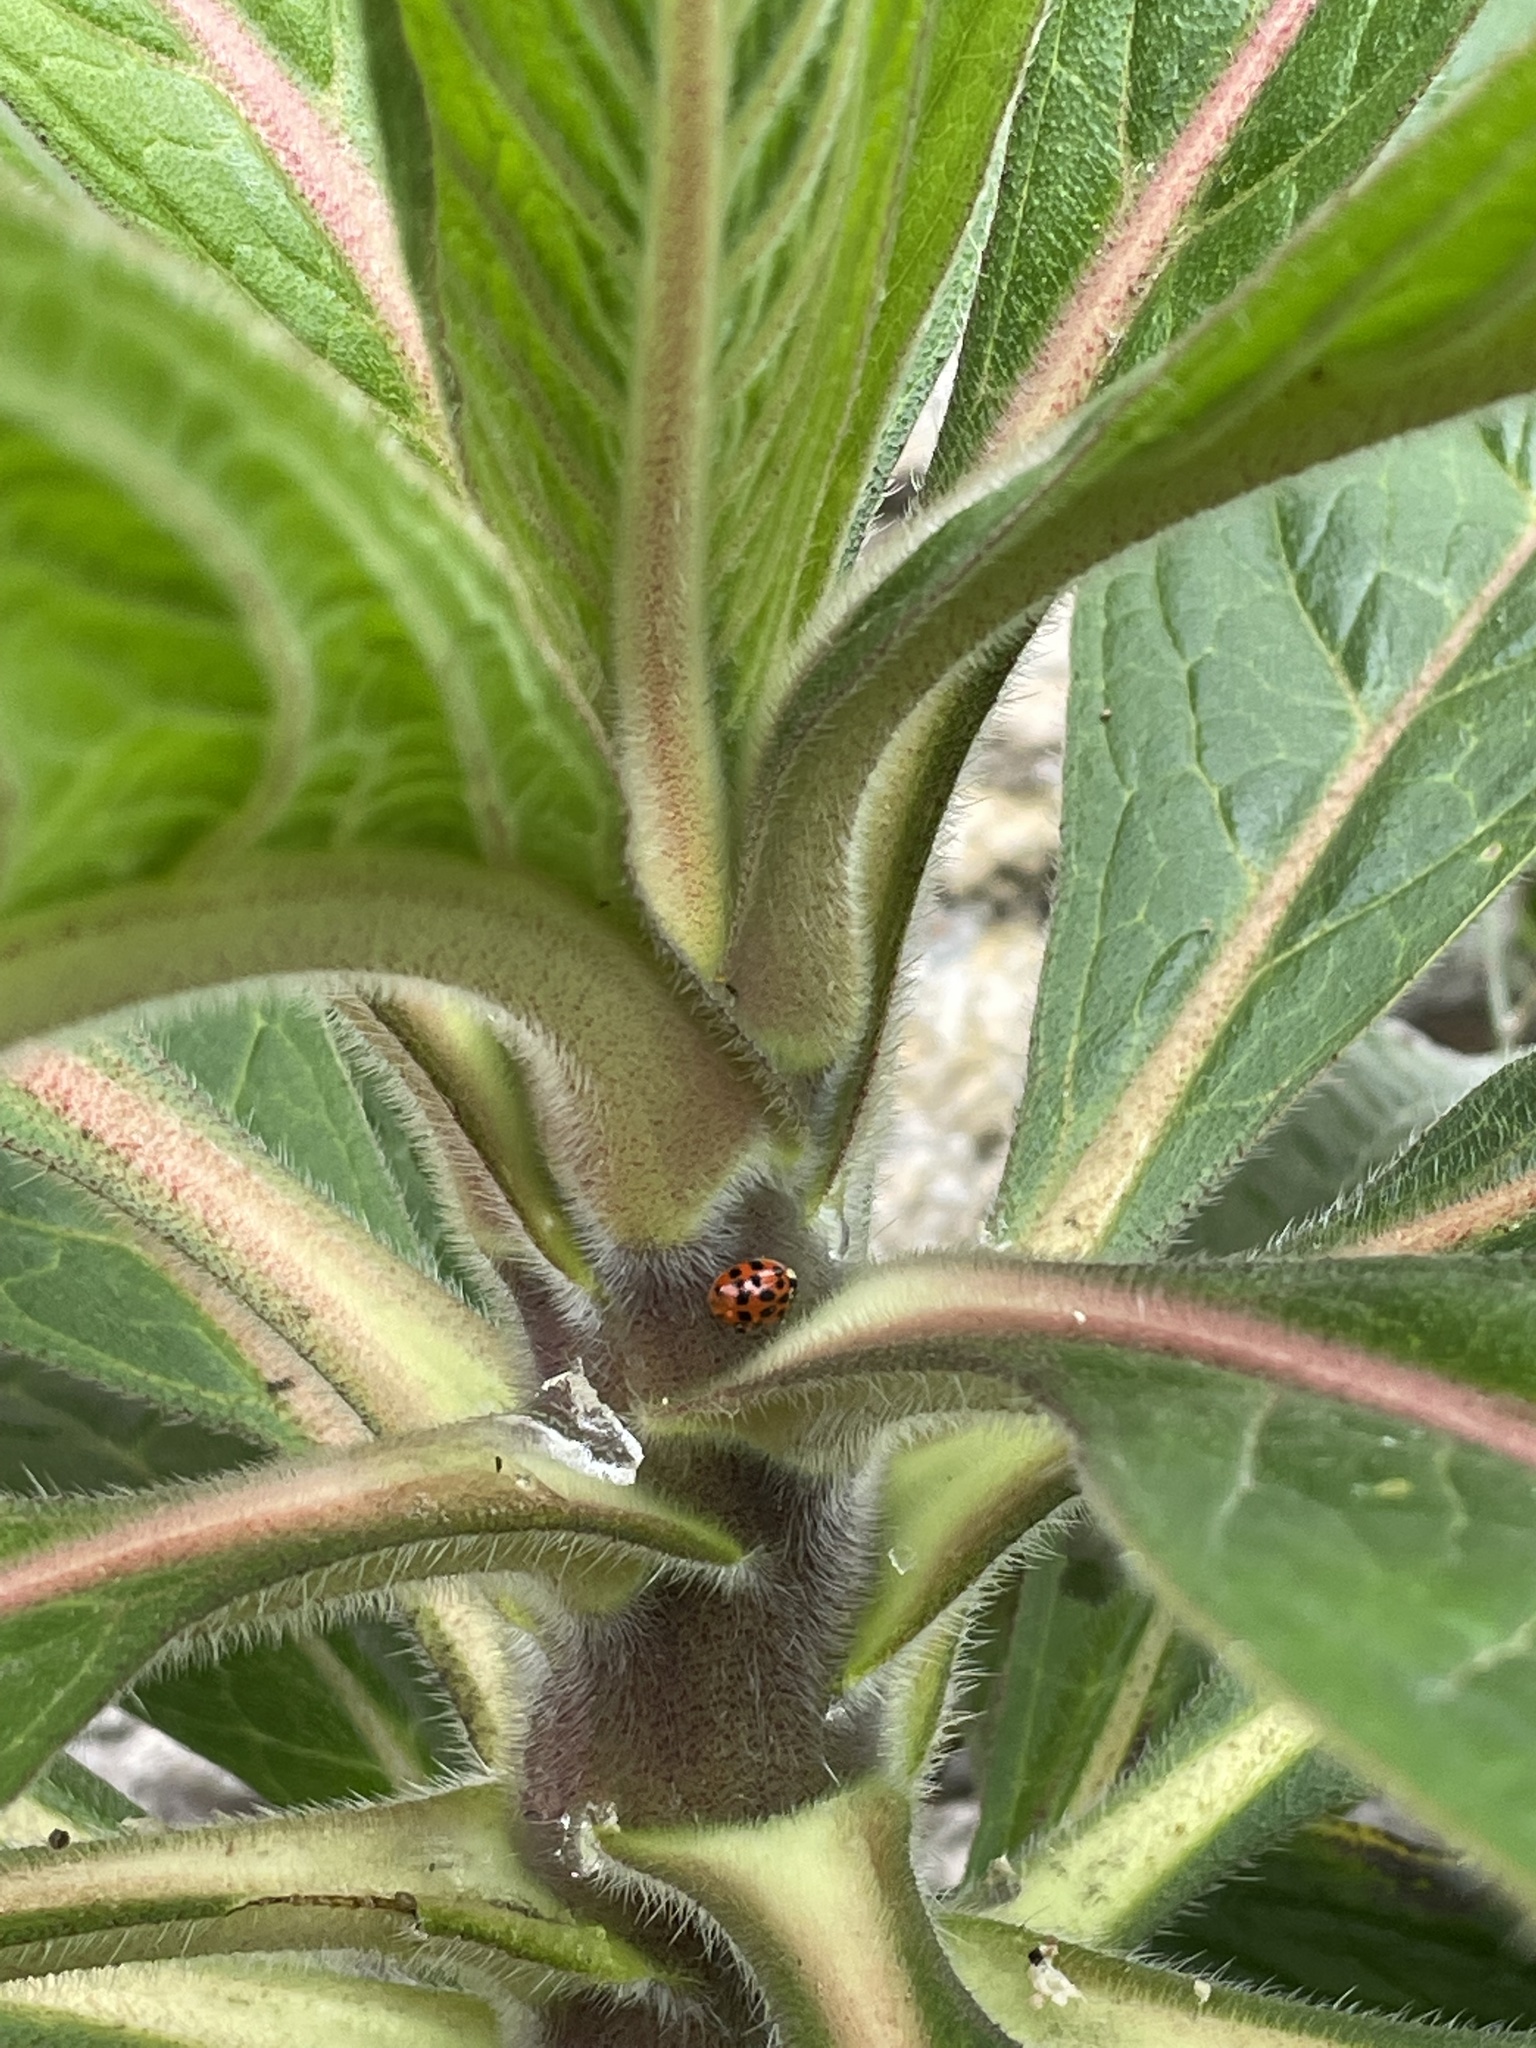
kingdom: Animalia
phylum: Arthropoda
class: Insecta
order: Coleoptera
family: Coccinellidae
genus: Harmonia
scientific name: Harmonia axyridis
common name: Harlequin ladybird
